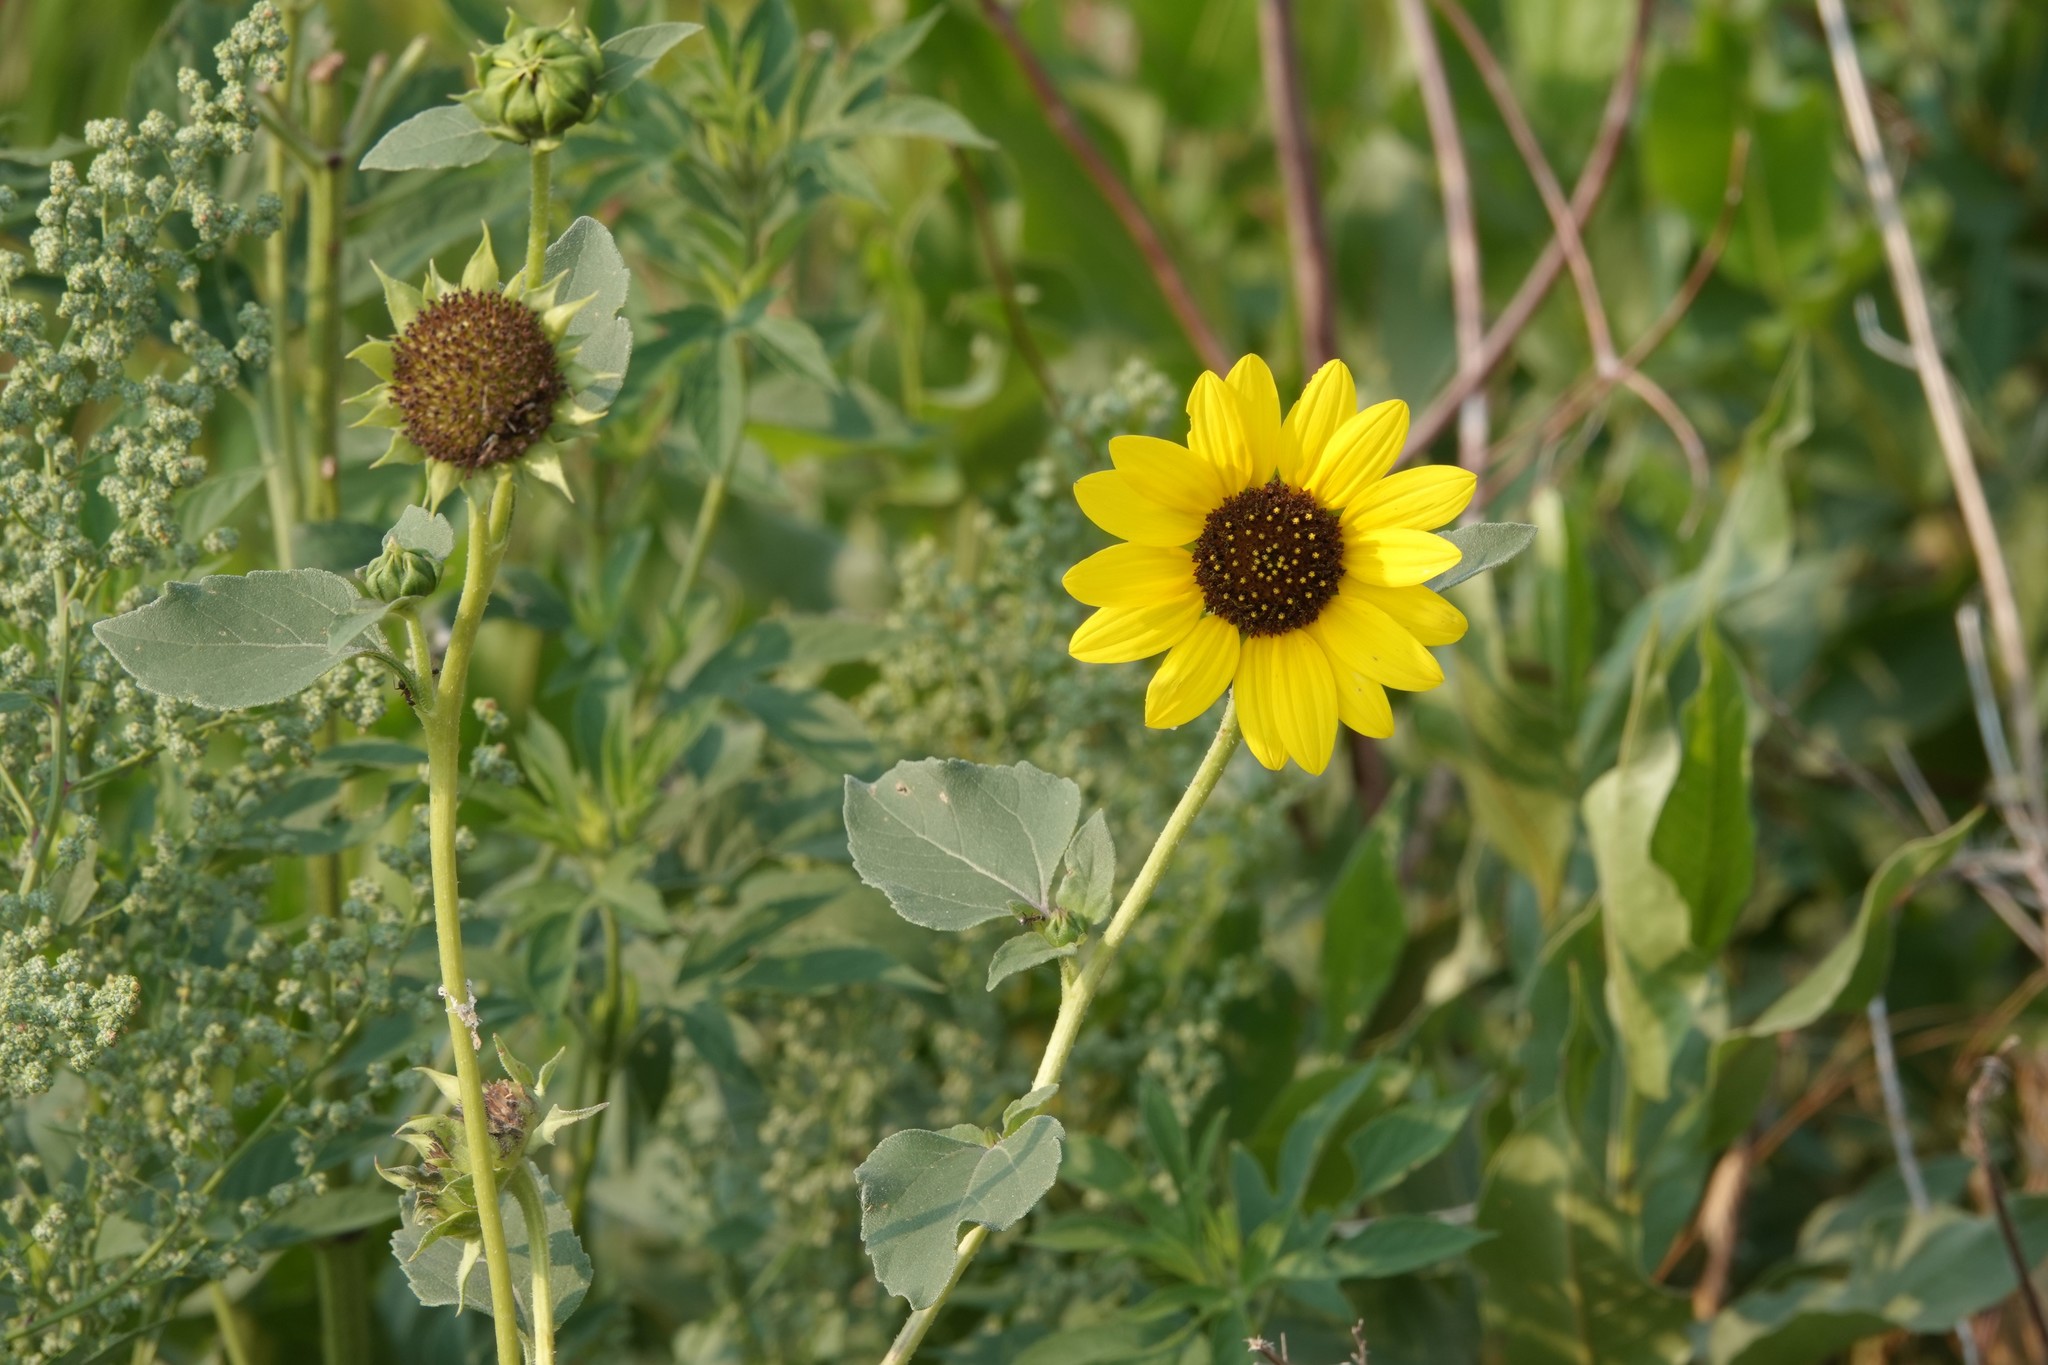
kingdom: Plantae
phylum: Tracheophyta
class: Magnoliopsida
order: Asterales
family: Asteraceae
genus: Helianthus
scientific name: Helianthus petiolaris
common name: Lesser sunflower
